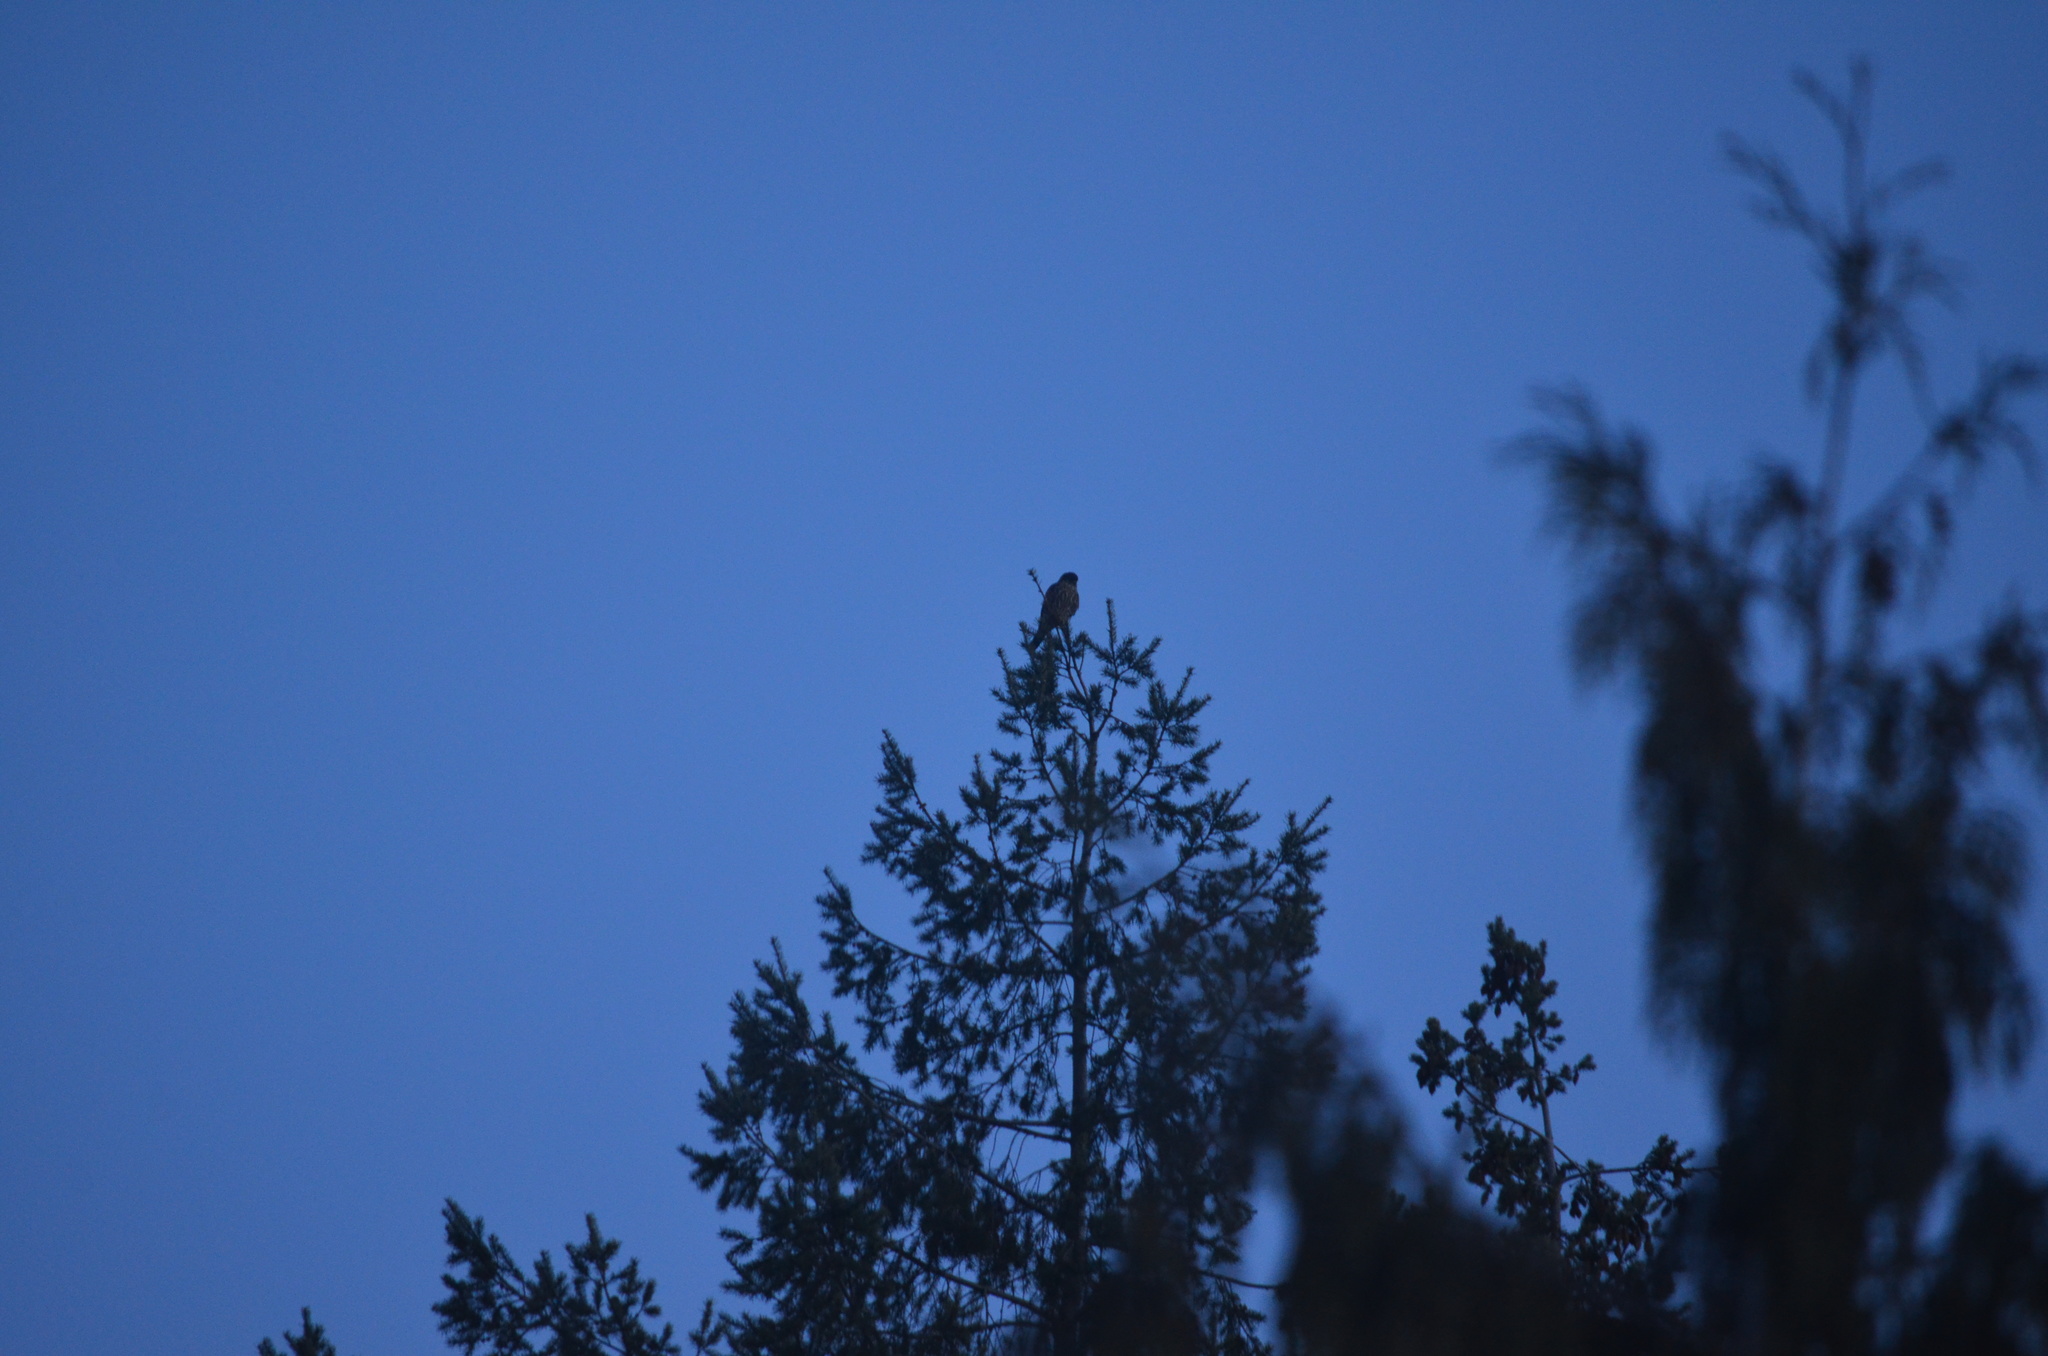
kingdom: Animalia
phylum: Chordata
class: Aves
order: Falconiformes
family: Falconidae
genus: Falco
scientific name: Falco columbarius
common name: Merlin
